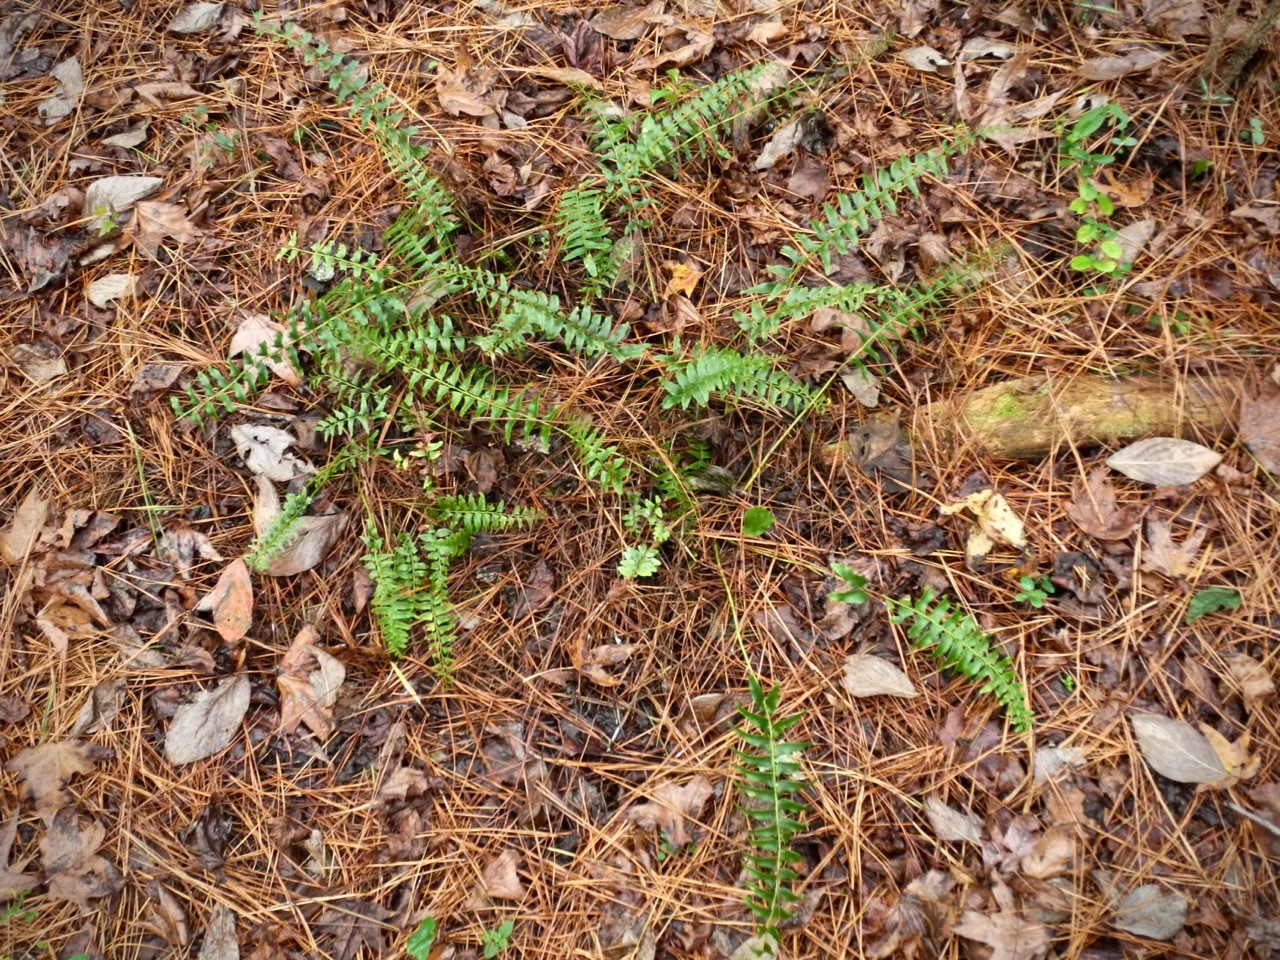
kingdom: Plantae
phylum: Tracheophyta
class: Polypodiopsida
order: Polypodiales
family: Dryopteridaceae
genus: Polystichum
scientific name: Polystichum acrostichoides
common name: Christmas fern
